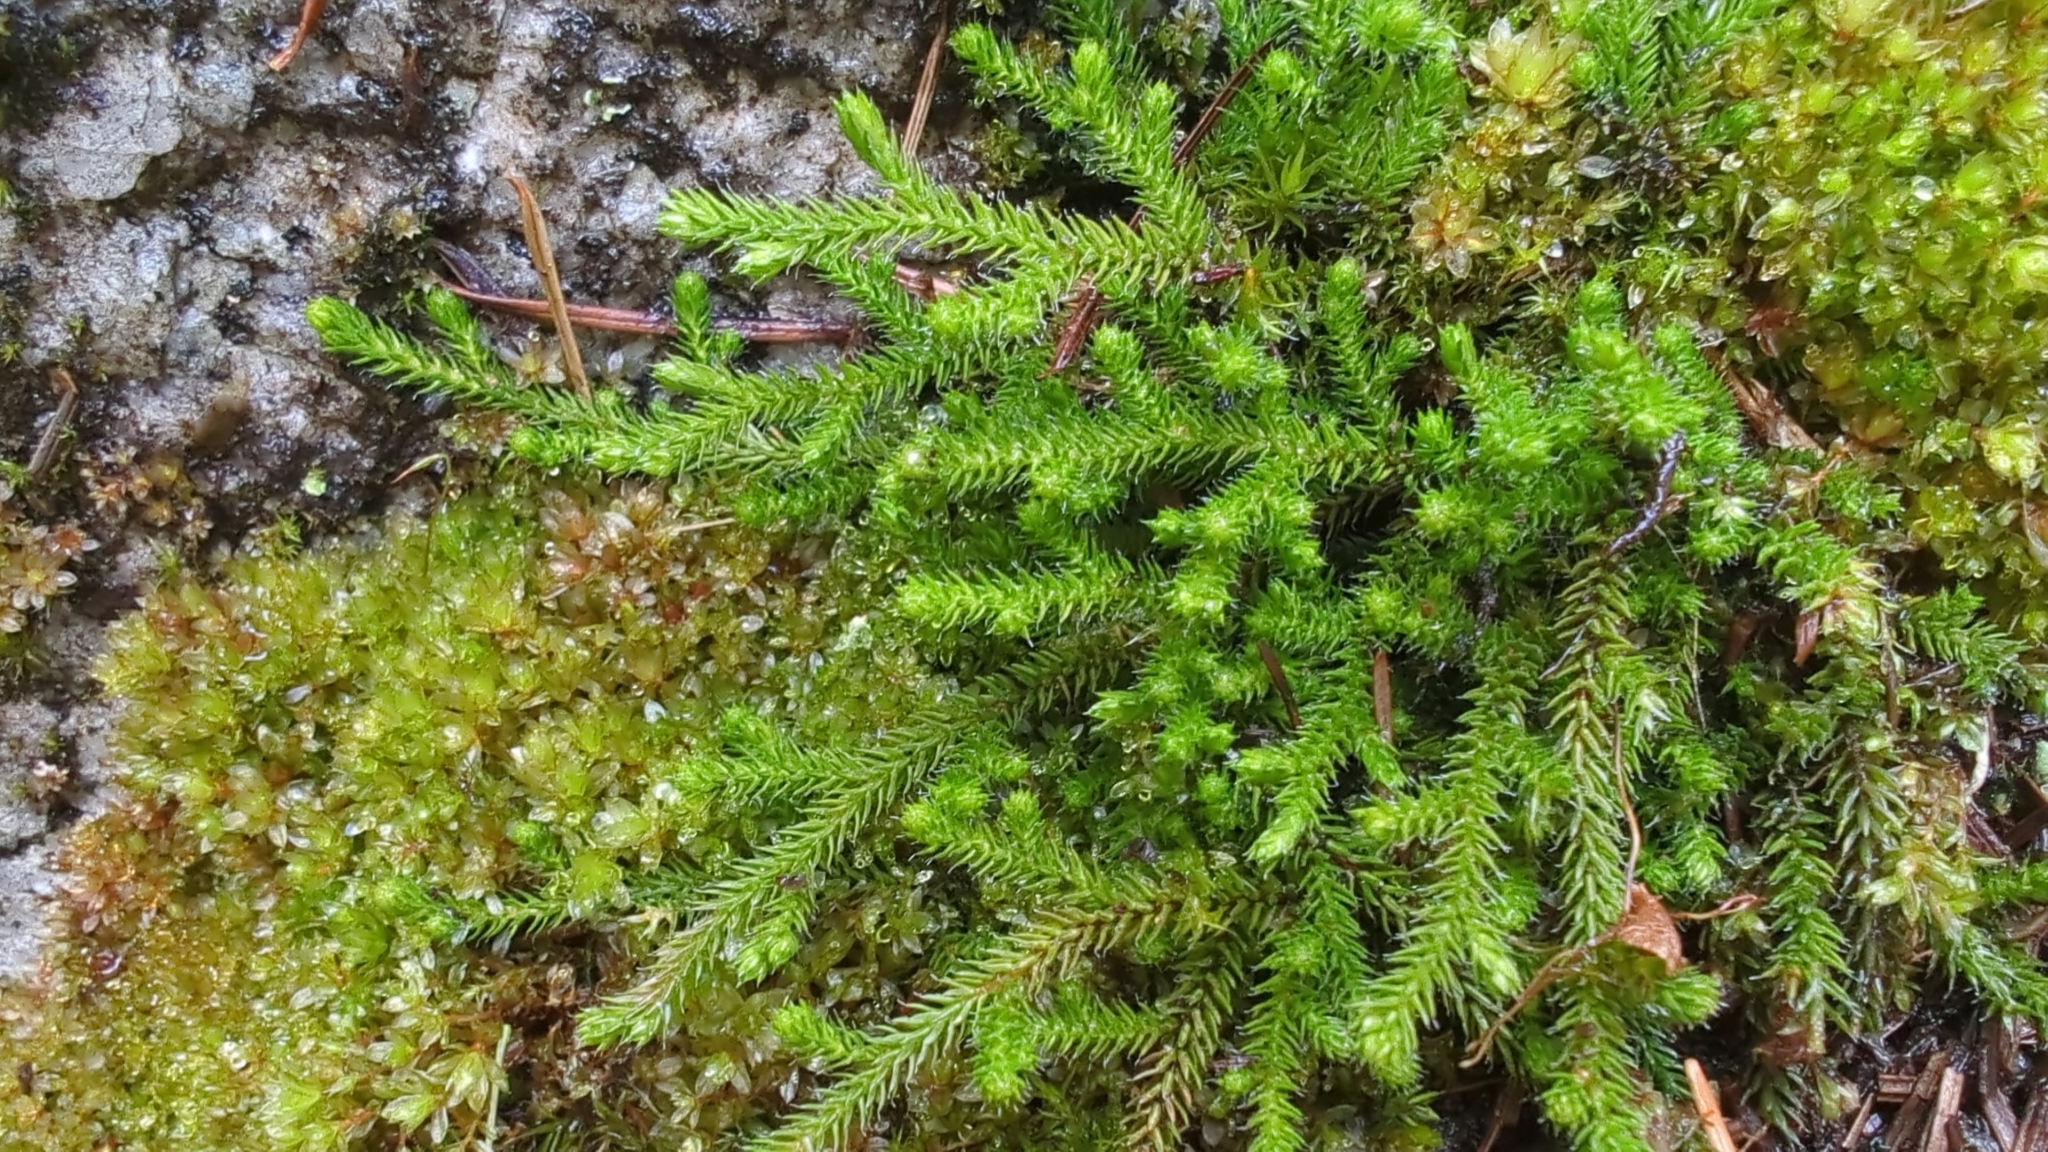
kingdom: Plantae
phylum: Tracheophyta
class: Lycopodiopsida
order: Selaginellales
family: Selaginellaceae
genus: Selaginella
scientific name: Selaginella wallacei
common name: Wallace's selaginella
